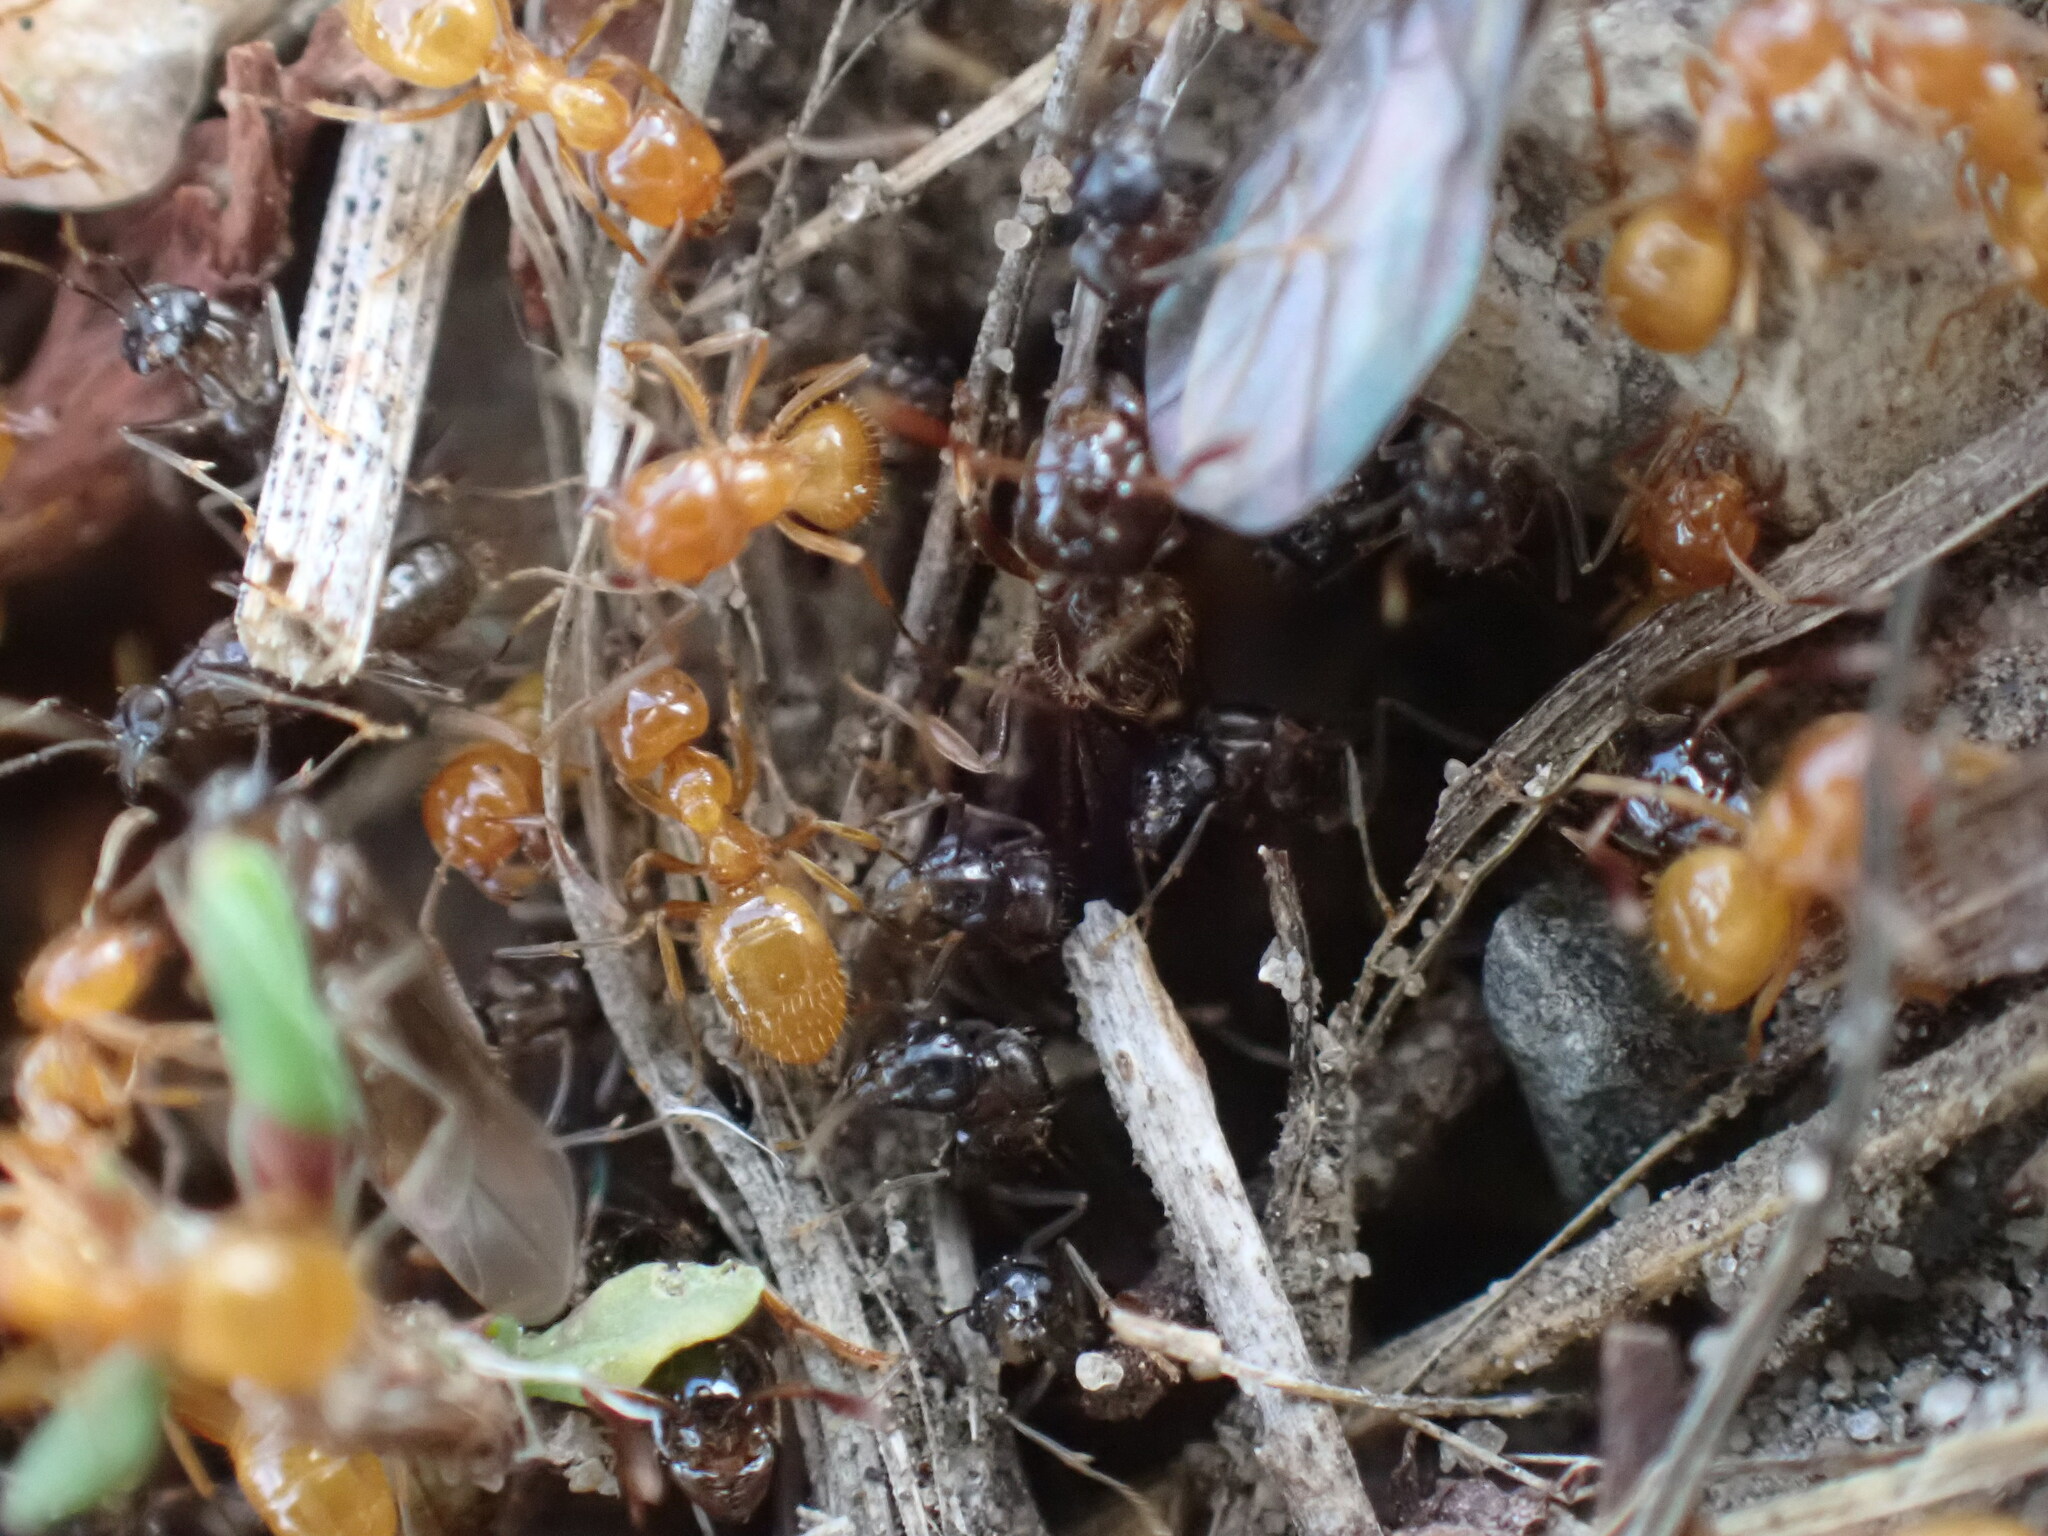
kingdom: Animalia
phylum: Arthropoda
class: Insecta
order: Hymenoptera
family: Formicidae
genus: Lasius
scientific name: Lasius
